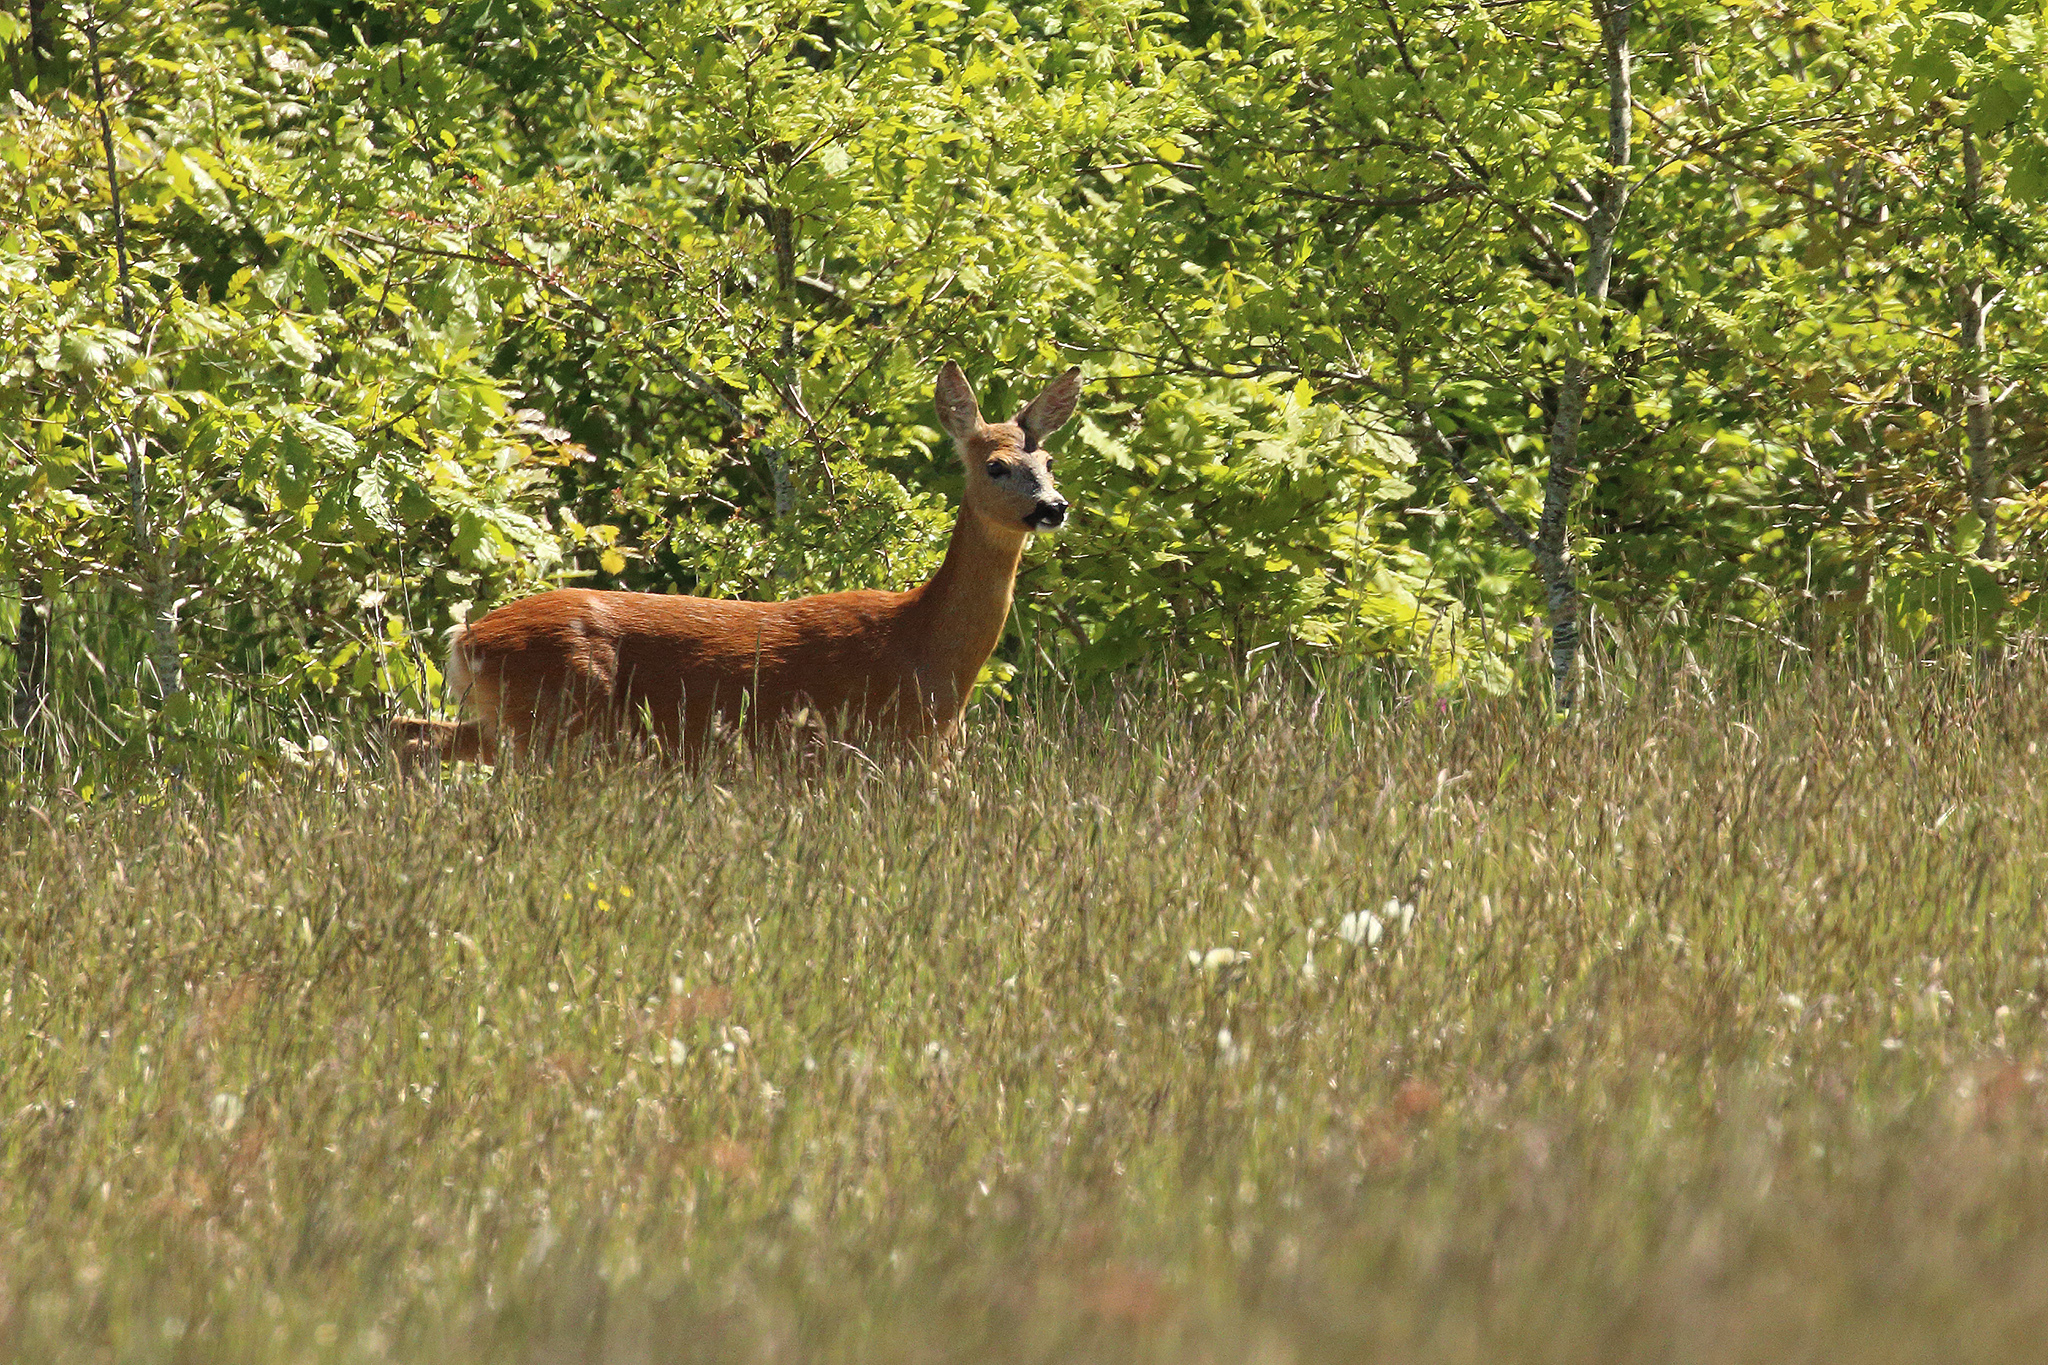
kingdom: Animalia
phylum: Chordata
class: Mammalia
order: Artiodactyla
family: Cervidae
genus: Capreolus
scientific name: Capreolus capreolus
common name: Western roe deer
